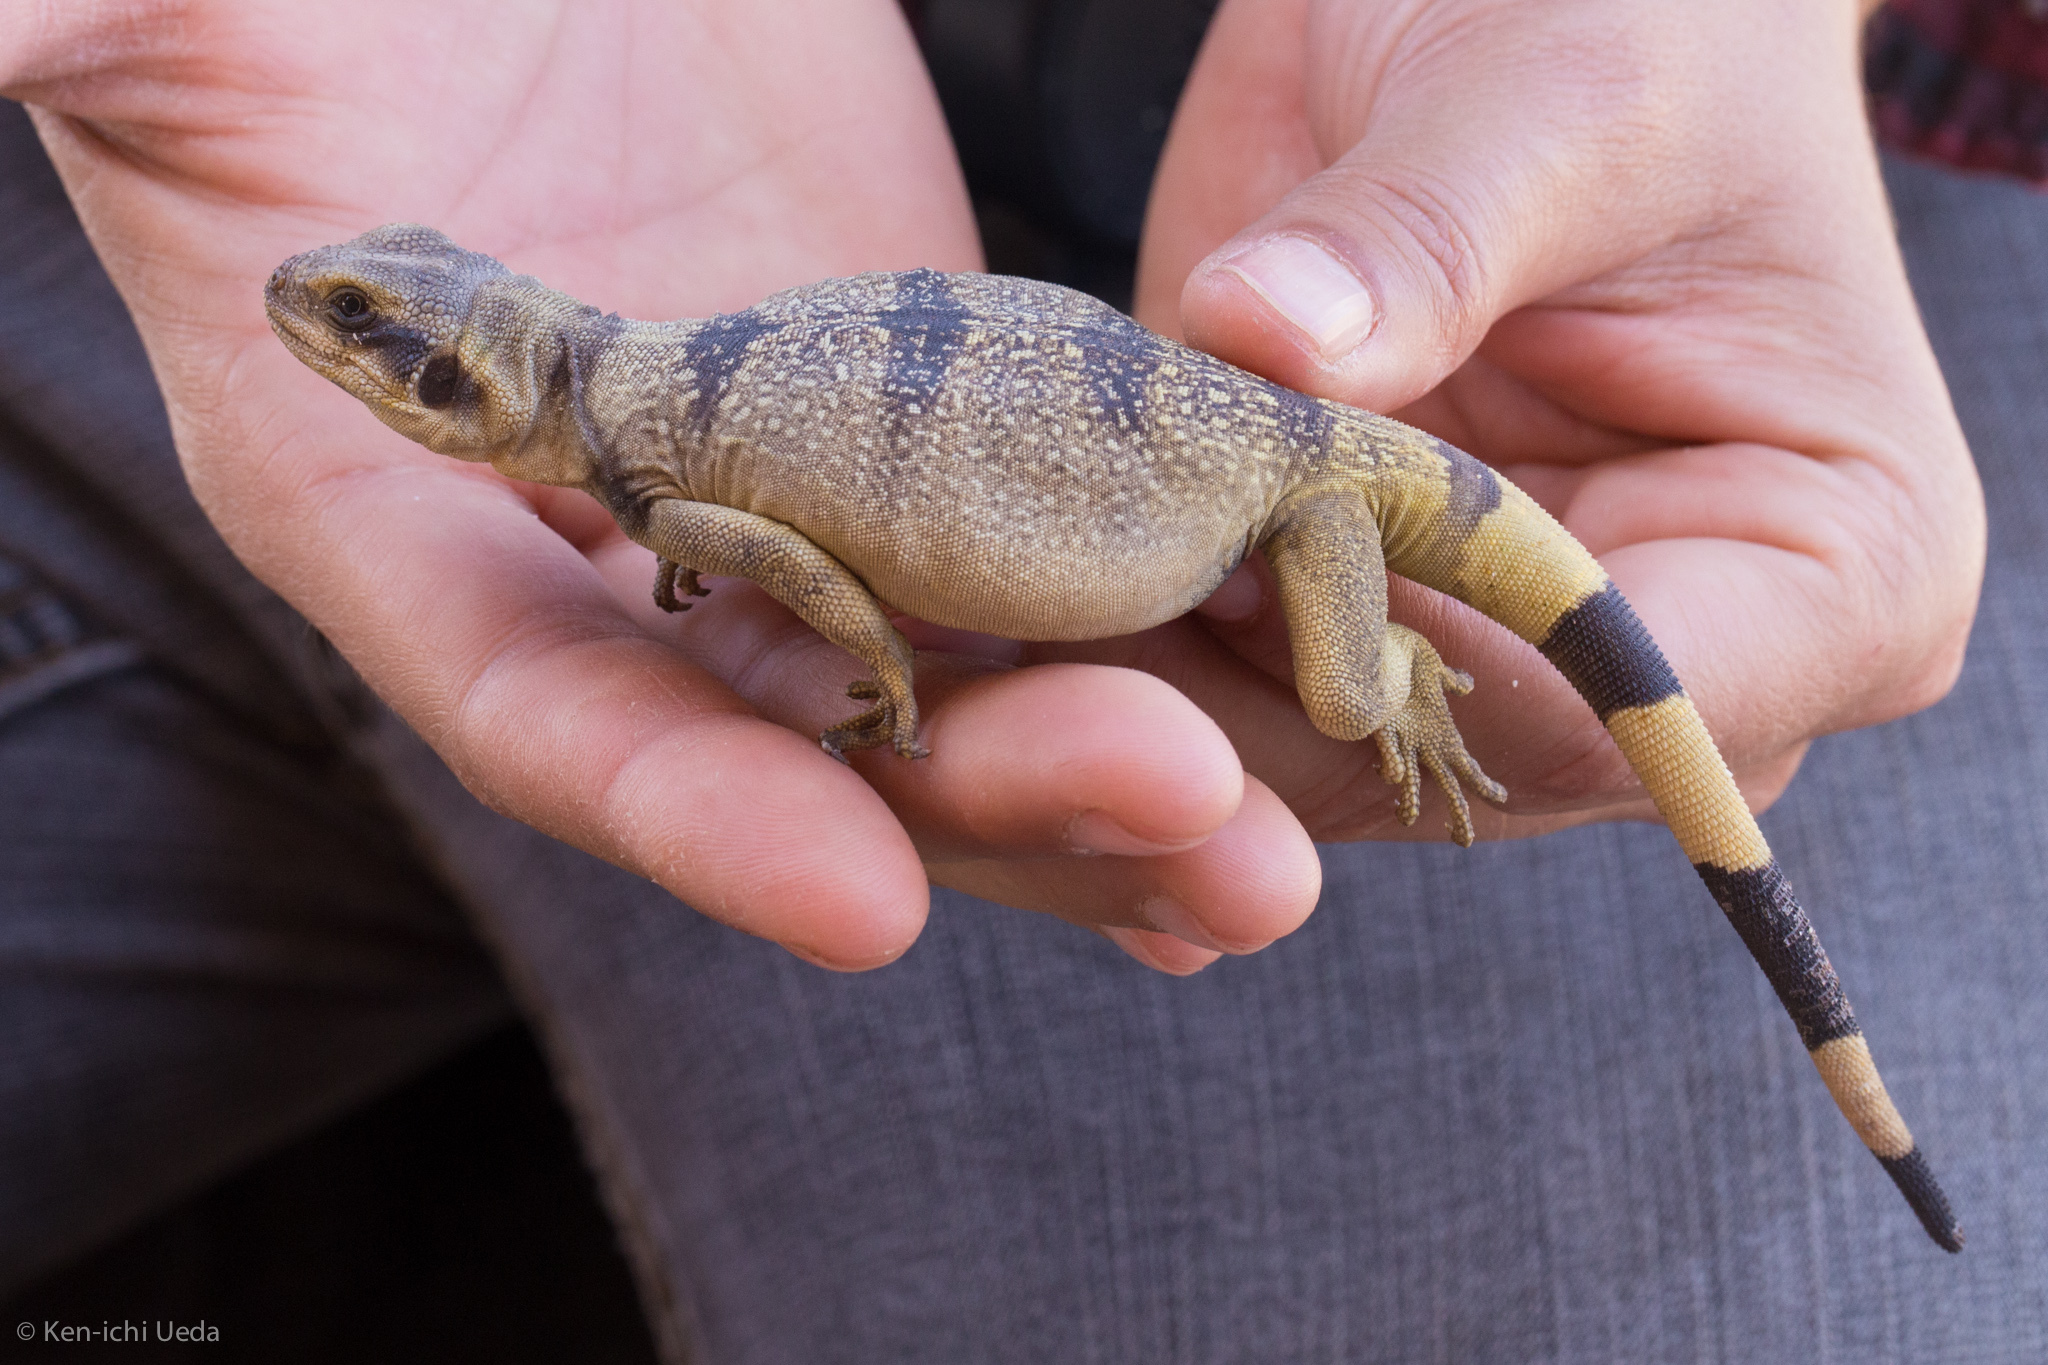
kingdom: Animalia
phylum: Chordata
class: Squamata
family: Iguanidae
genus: Sauromalus
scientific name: Sauromalus ater
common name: Northern chuckwalla
